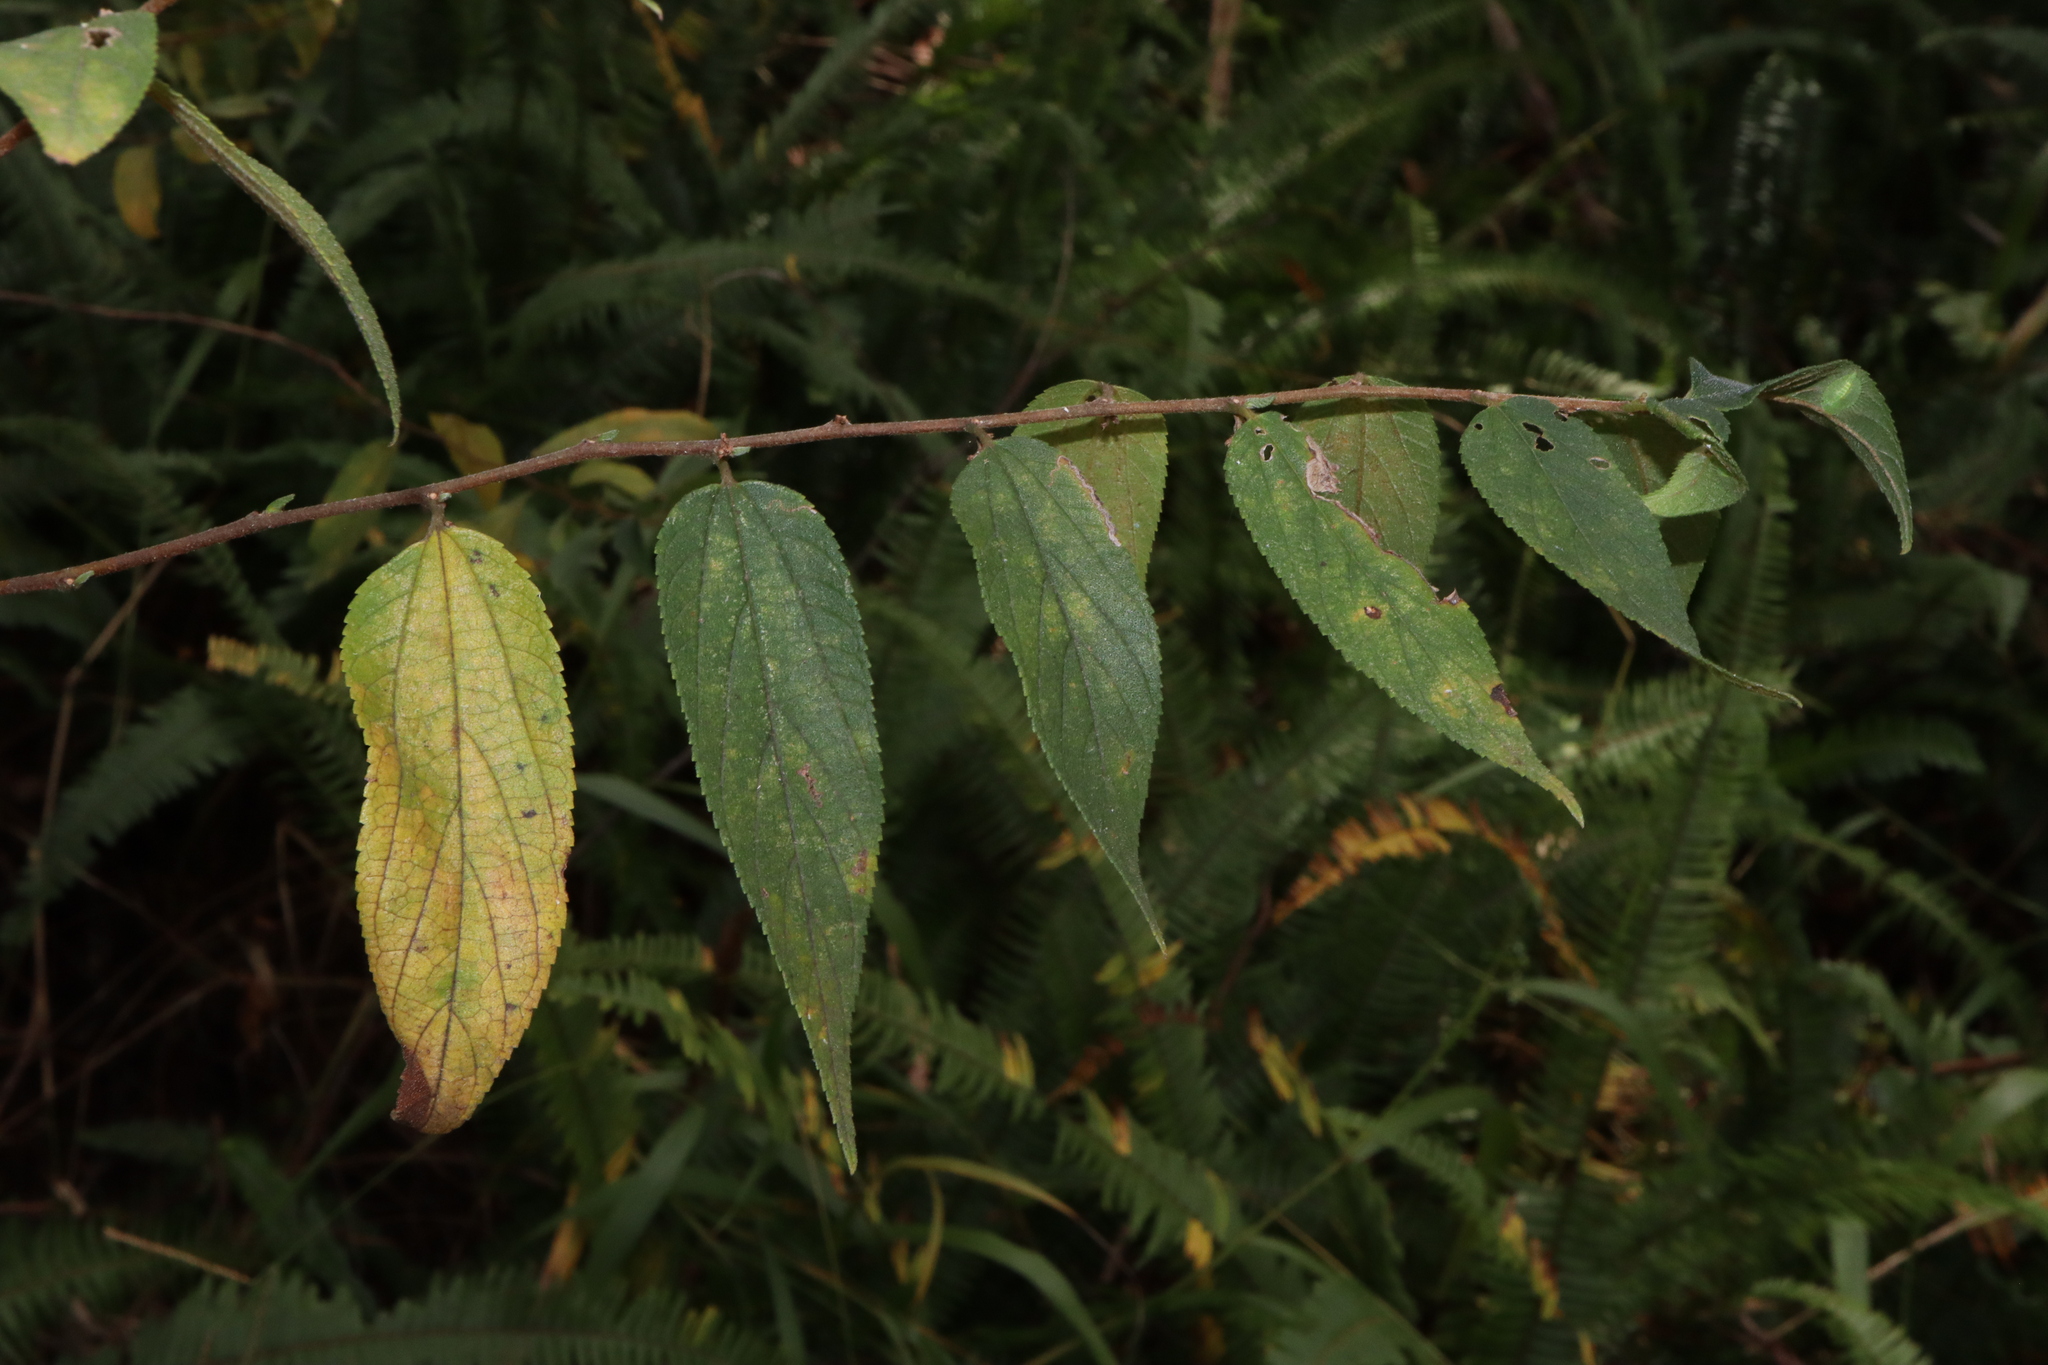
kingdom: Plantae
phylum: Tracheophyta
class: Magnoliopsida
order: Rosales
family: Cannabaceae
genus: Trema
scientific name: Trema tomentosum
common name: Peach-leaf-poisonbush
